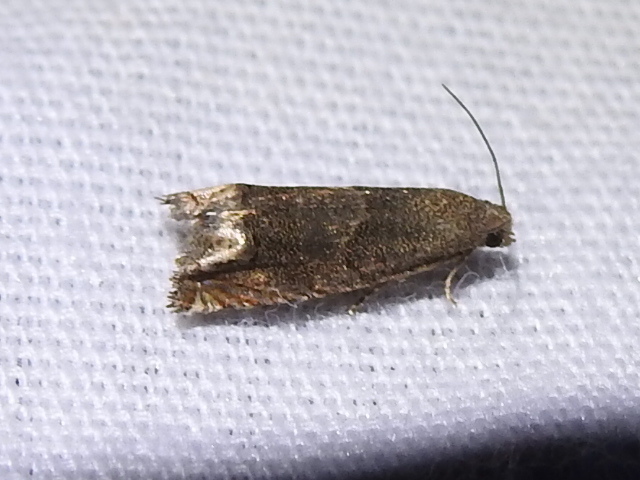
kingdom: Animalia
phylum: Arthropoda
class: Insecta
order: Lepidoptera
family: Tortricidae
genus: Epiblema
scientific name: Epiblema strenuana
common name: Ragweed borer moth
